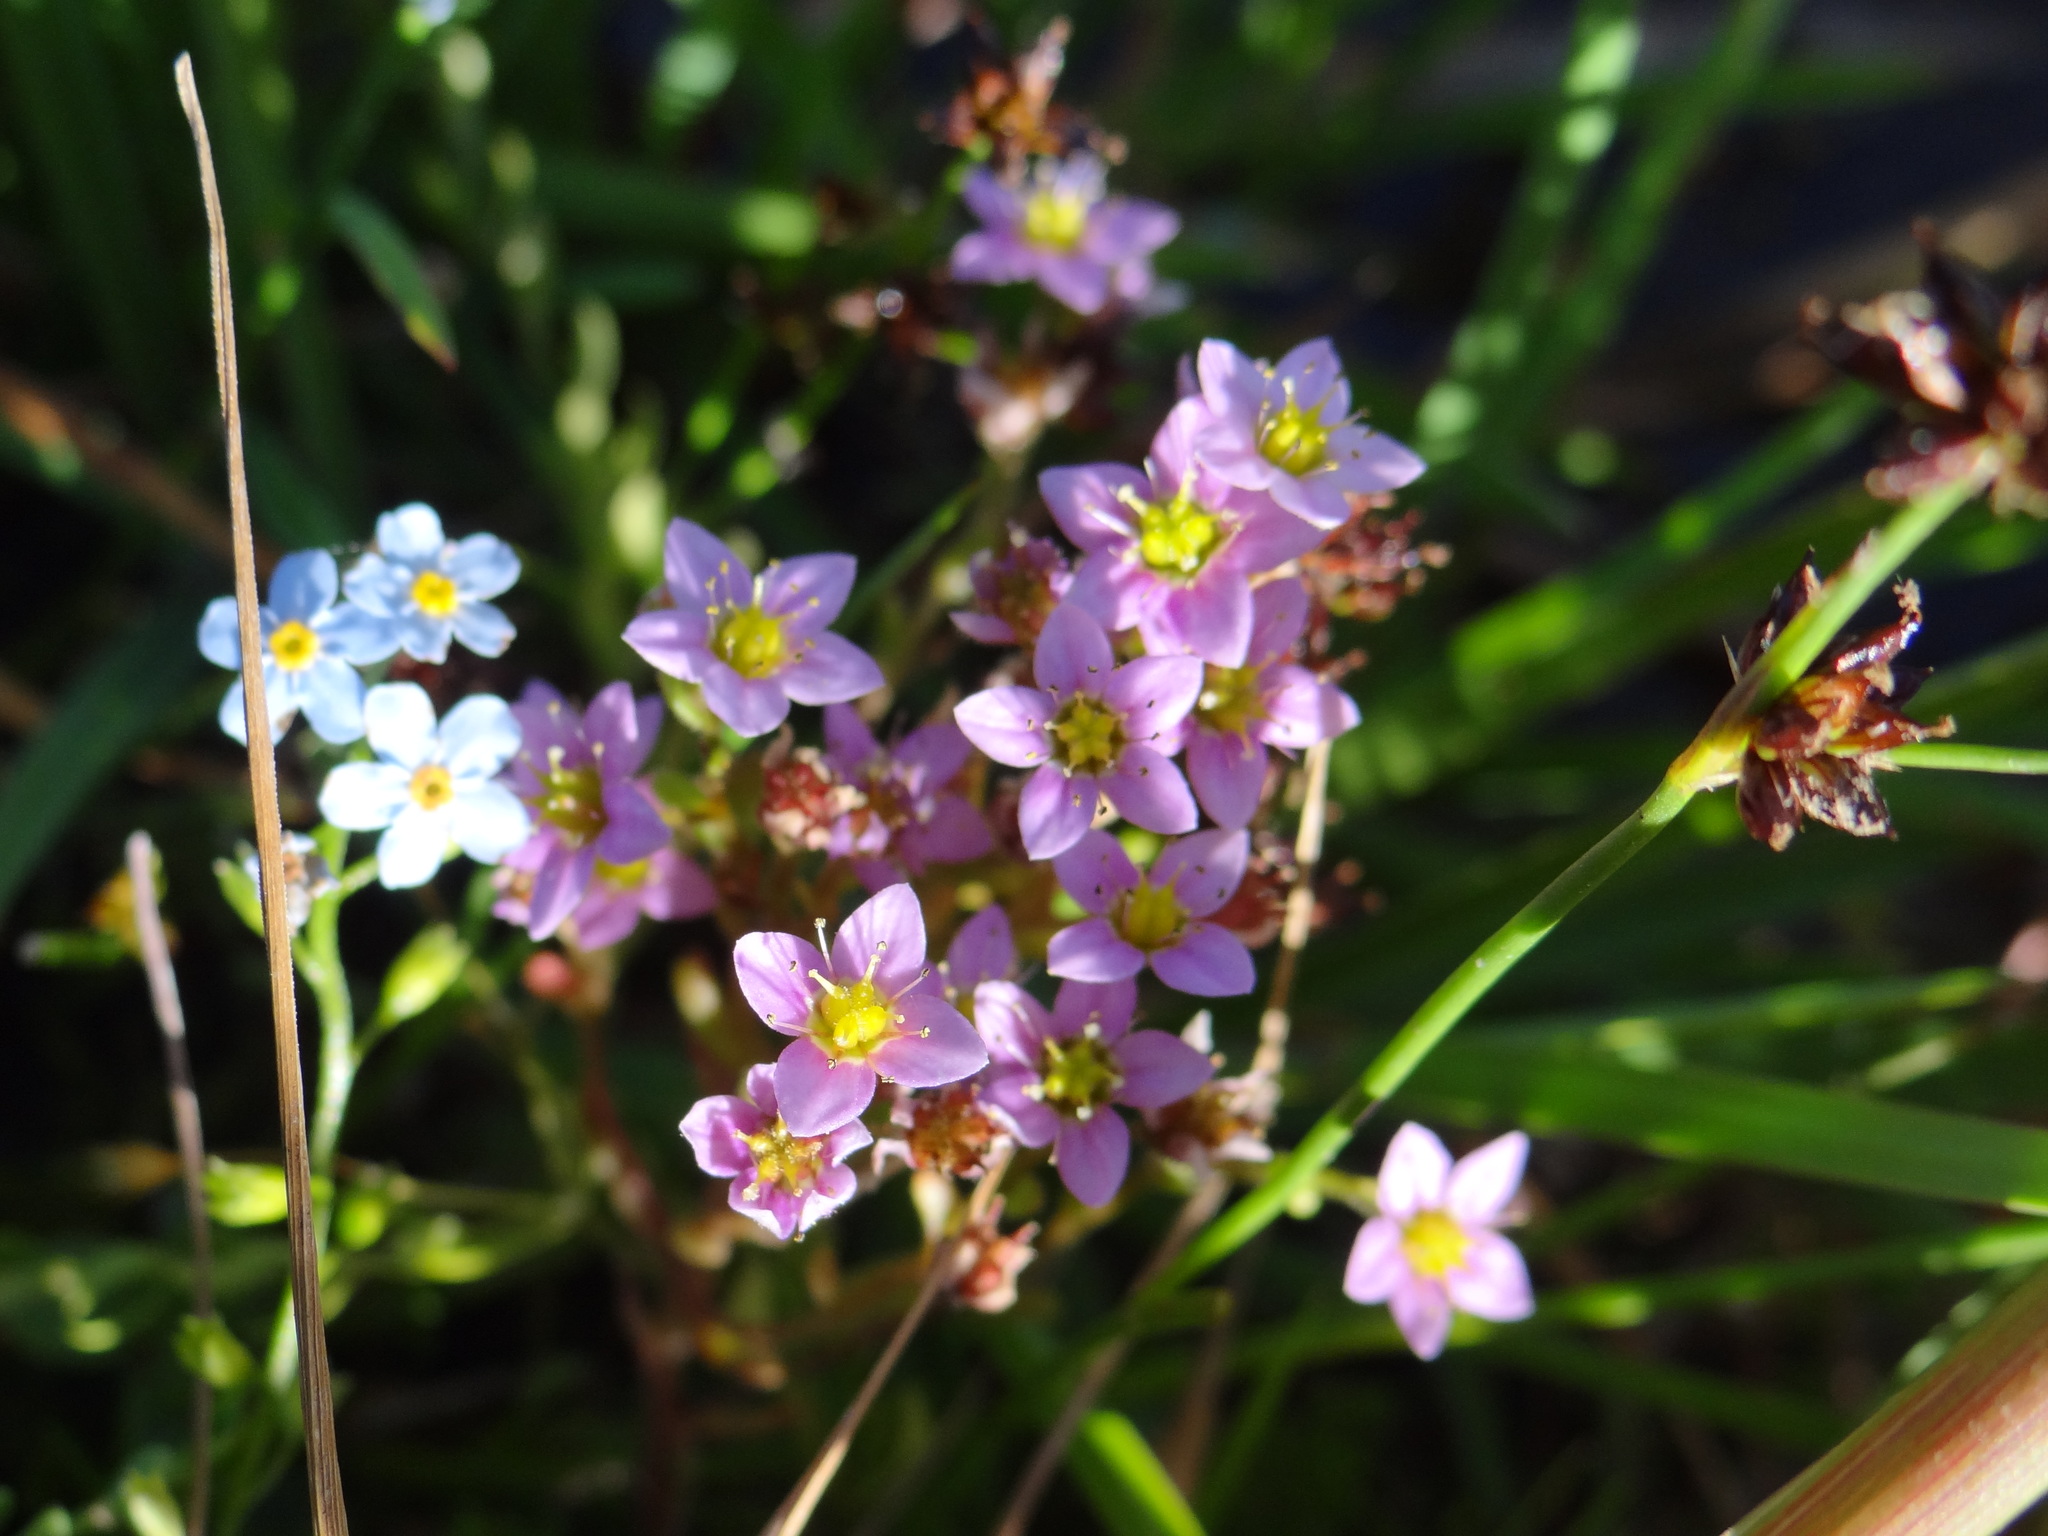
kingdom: Plantae
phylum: Tracheophyta
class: Magnoliopsida
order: Saxifragales
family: Crassulaceae
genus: Sedum
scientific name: Sedum villosum
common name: Hairy stonecrop
